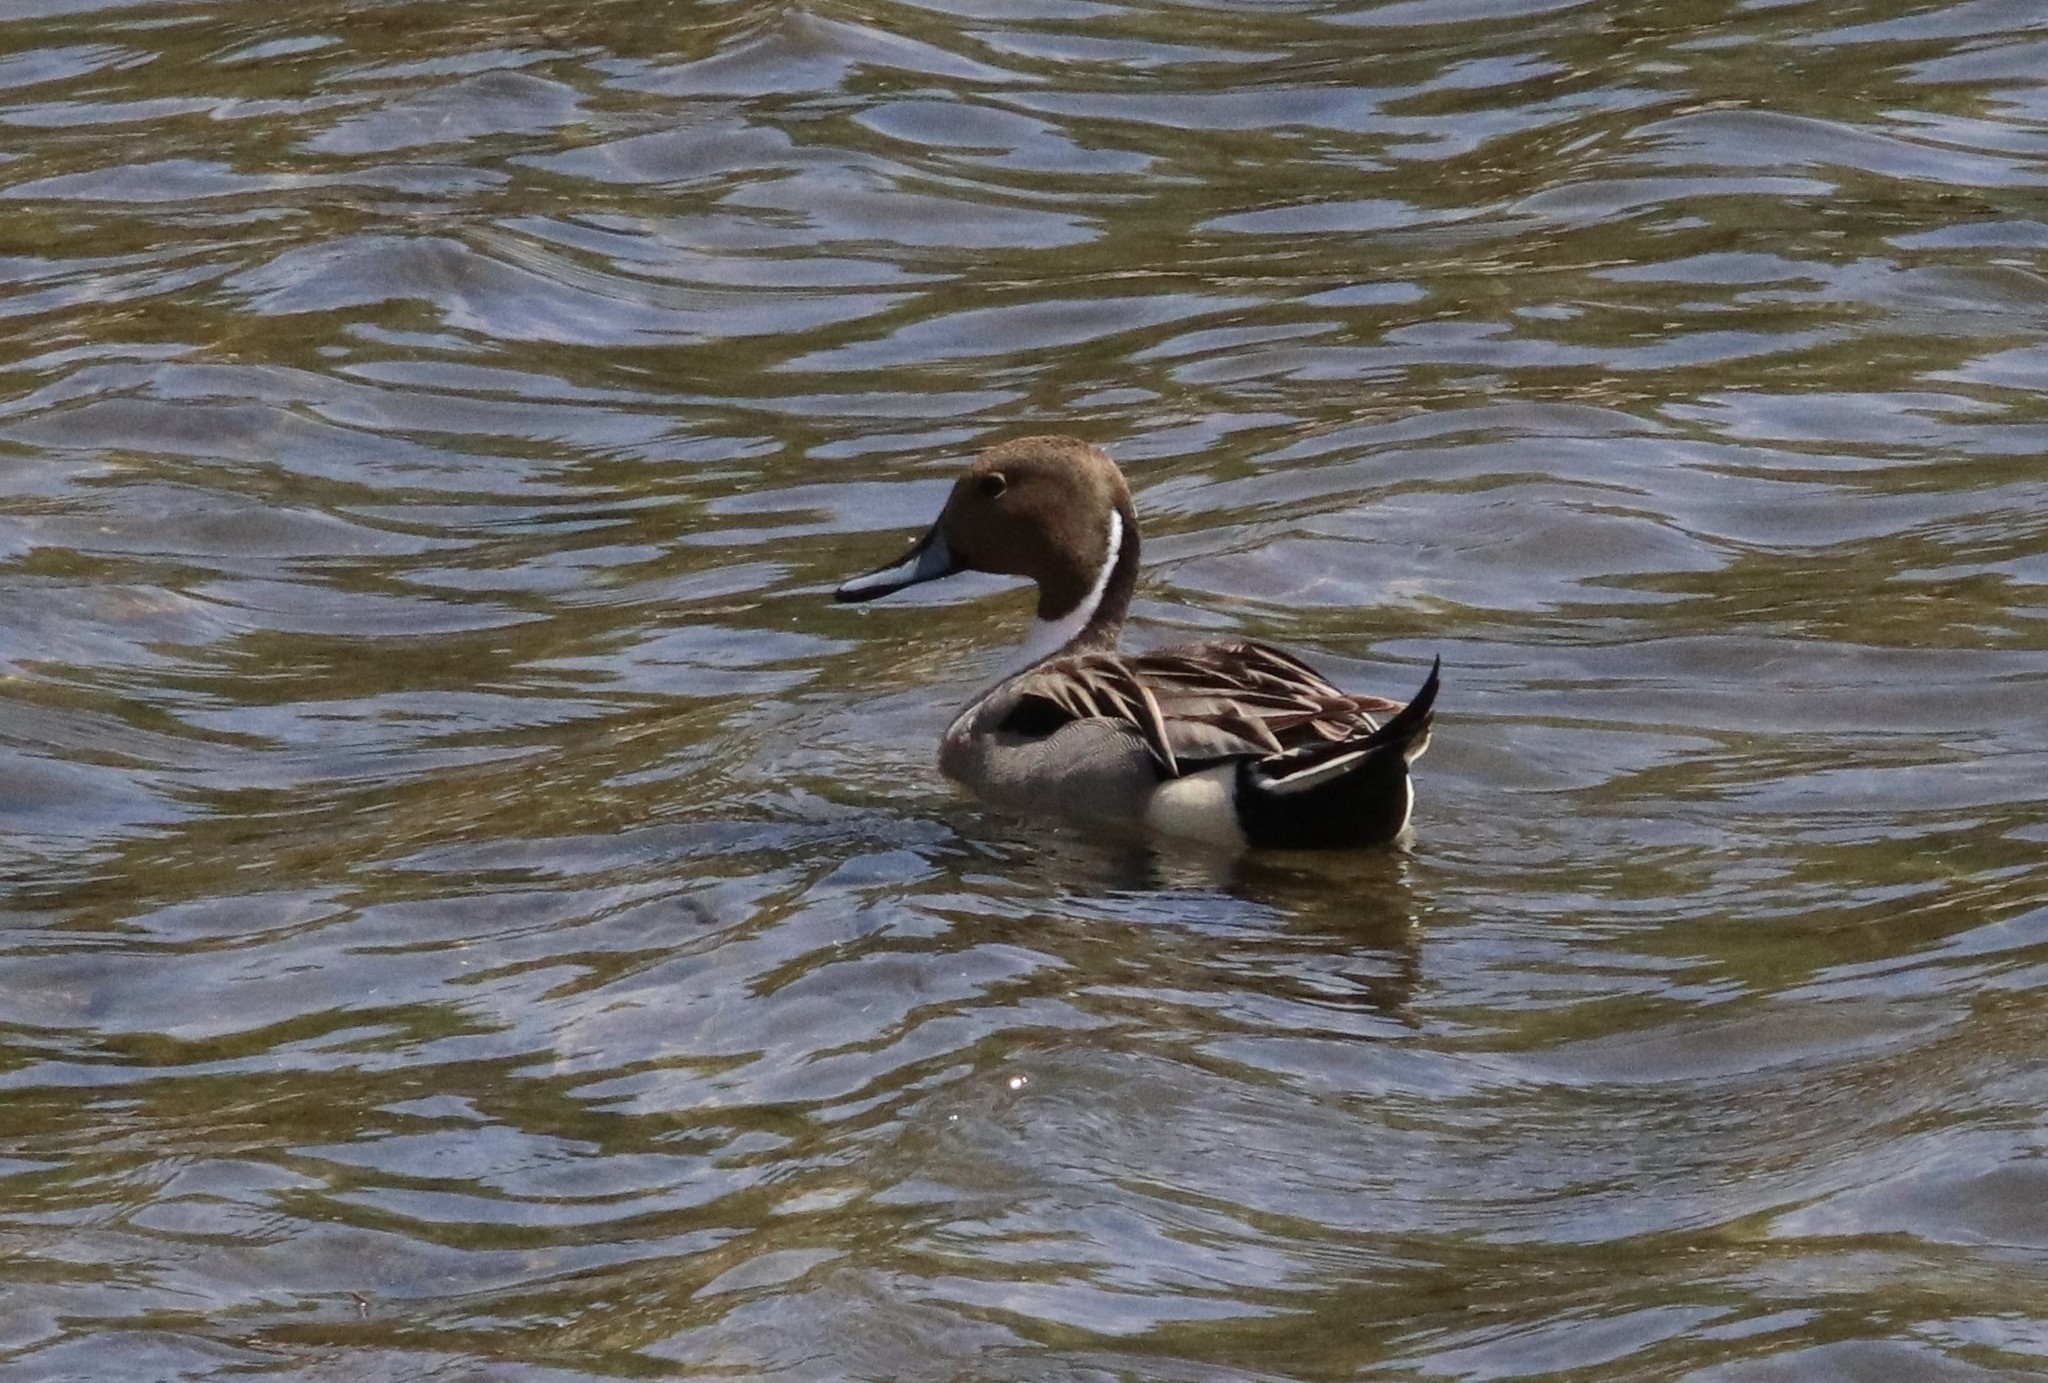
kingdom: Animalia
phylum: Chordata
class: Aves
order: Anseriformes
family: Anatidae
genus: Anas
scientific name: Anas acuta
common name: Northern pintail
